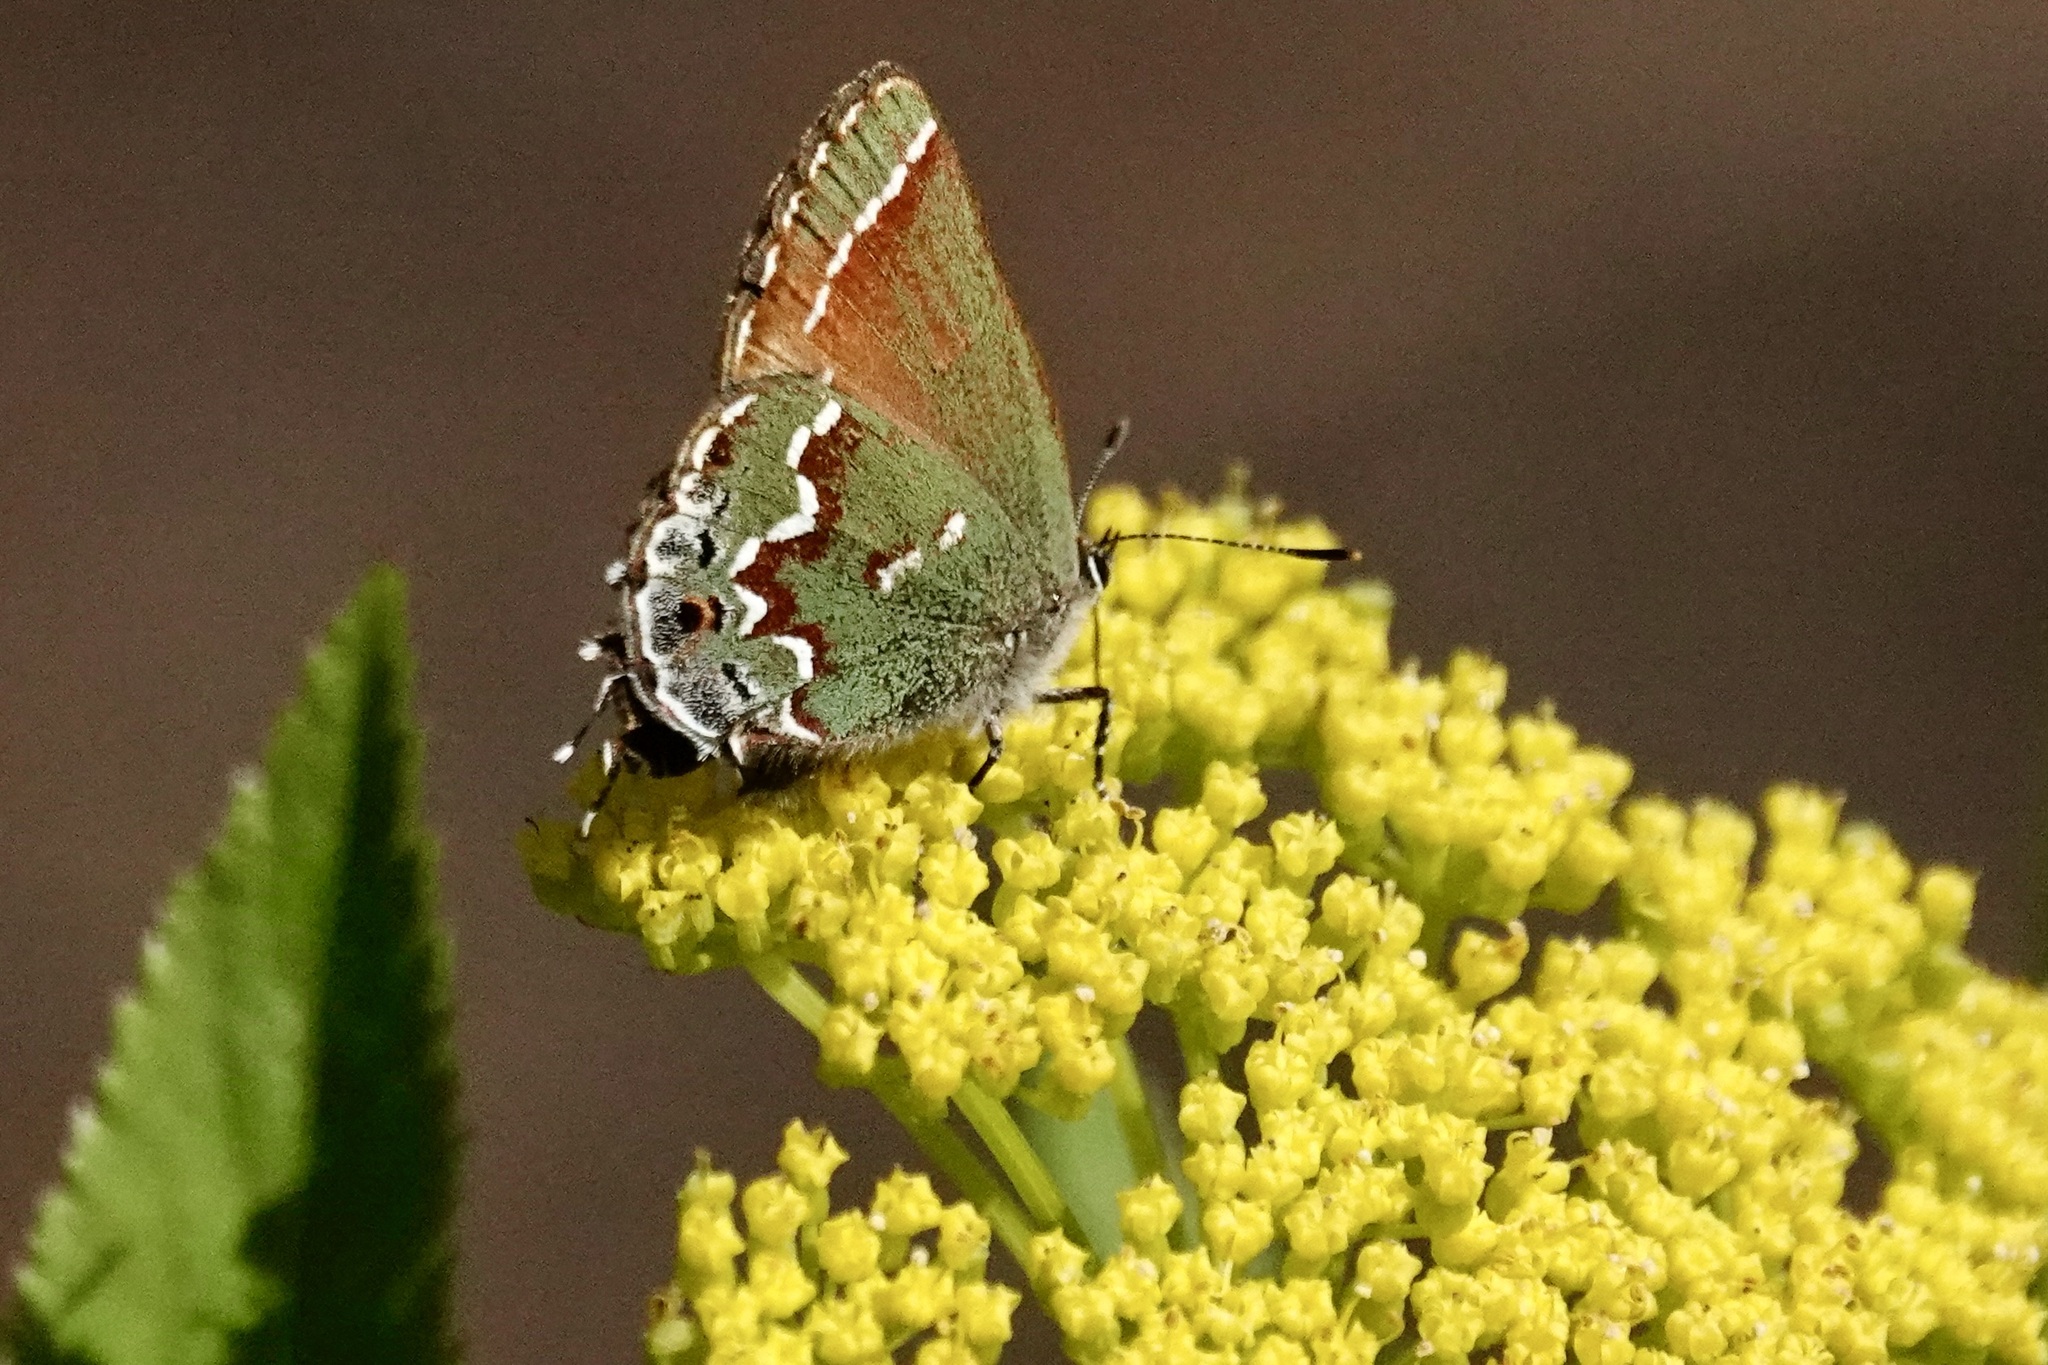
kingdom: Animalia
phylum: Arthropoda
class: Insecta
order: Lepidoptera
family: Lycaenidae
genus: Mitoura
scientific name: Mitoura gryneus
